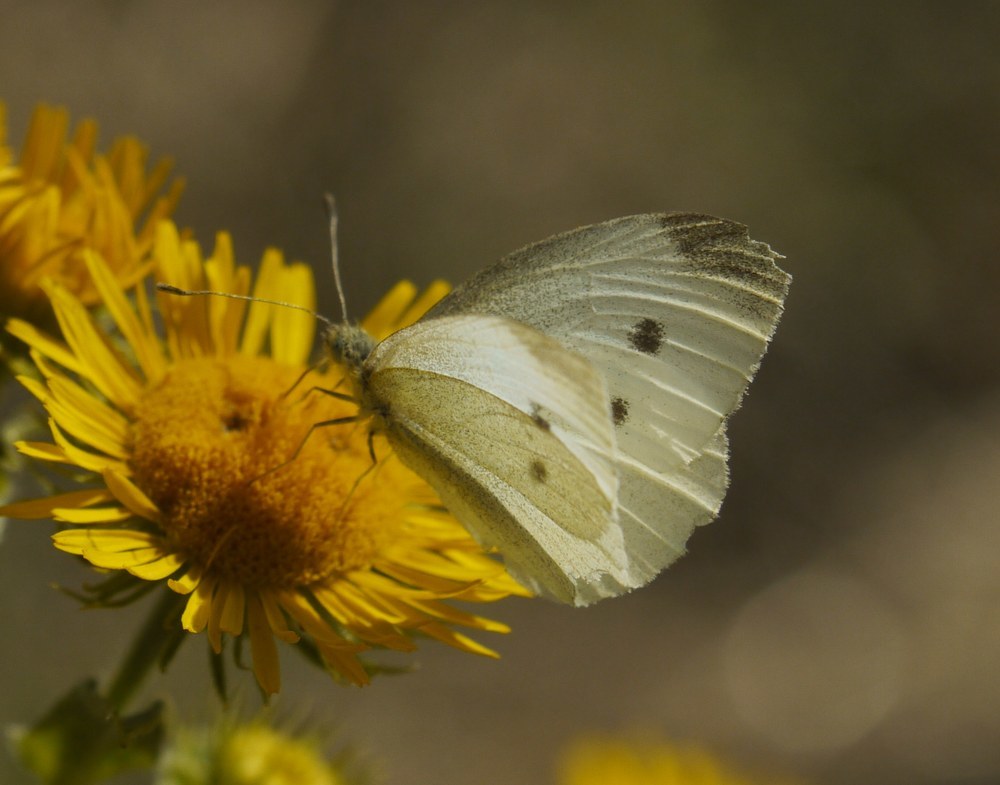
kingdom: Animalia
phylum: Arthropoda
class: Insecta
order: Lepidoptera
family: Pieridae
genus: Pieris
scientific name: Pieris rapae
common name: Small white
